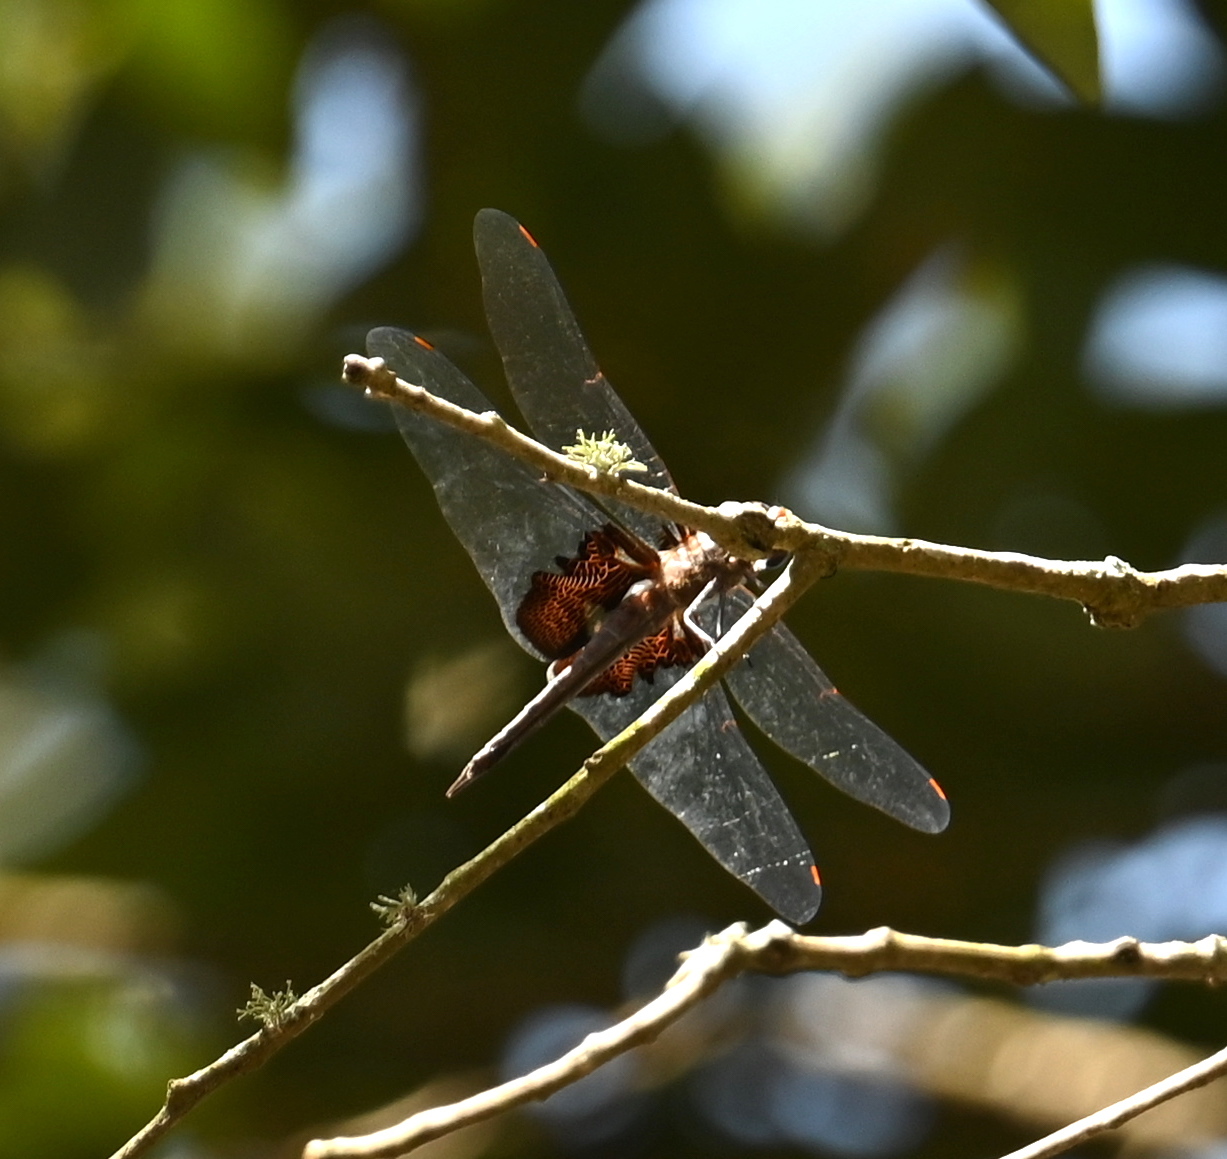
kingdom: Animalia
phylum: Arthropoda
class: Insecta
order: Odonata
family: Libellulidae
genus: Tramea
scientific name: Tramea lacerata
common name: Black saddlebags
